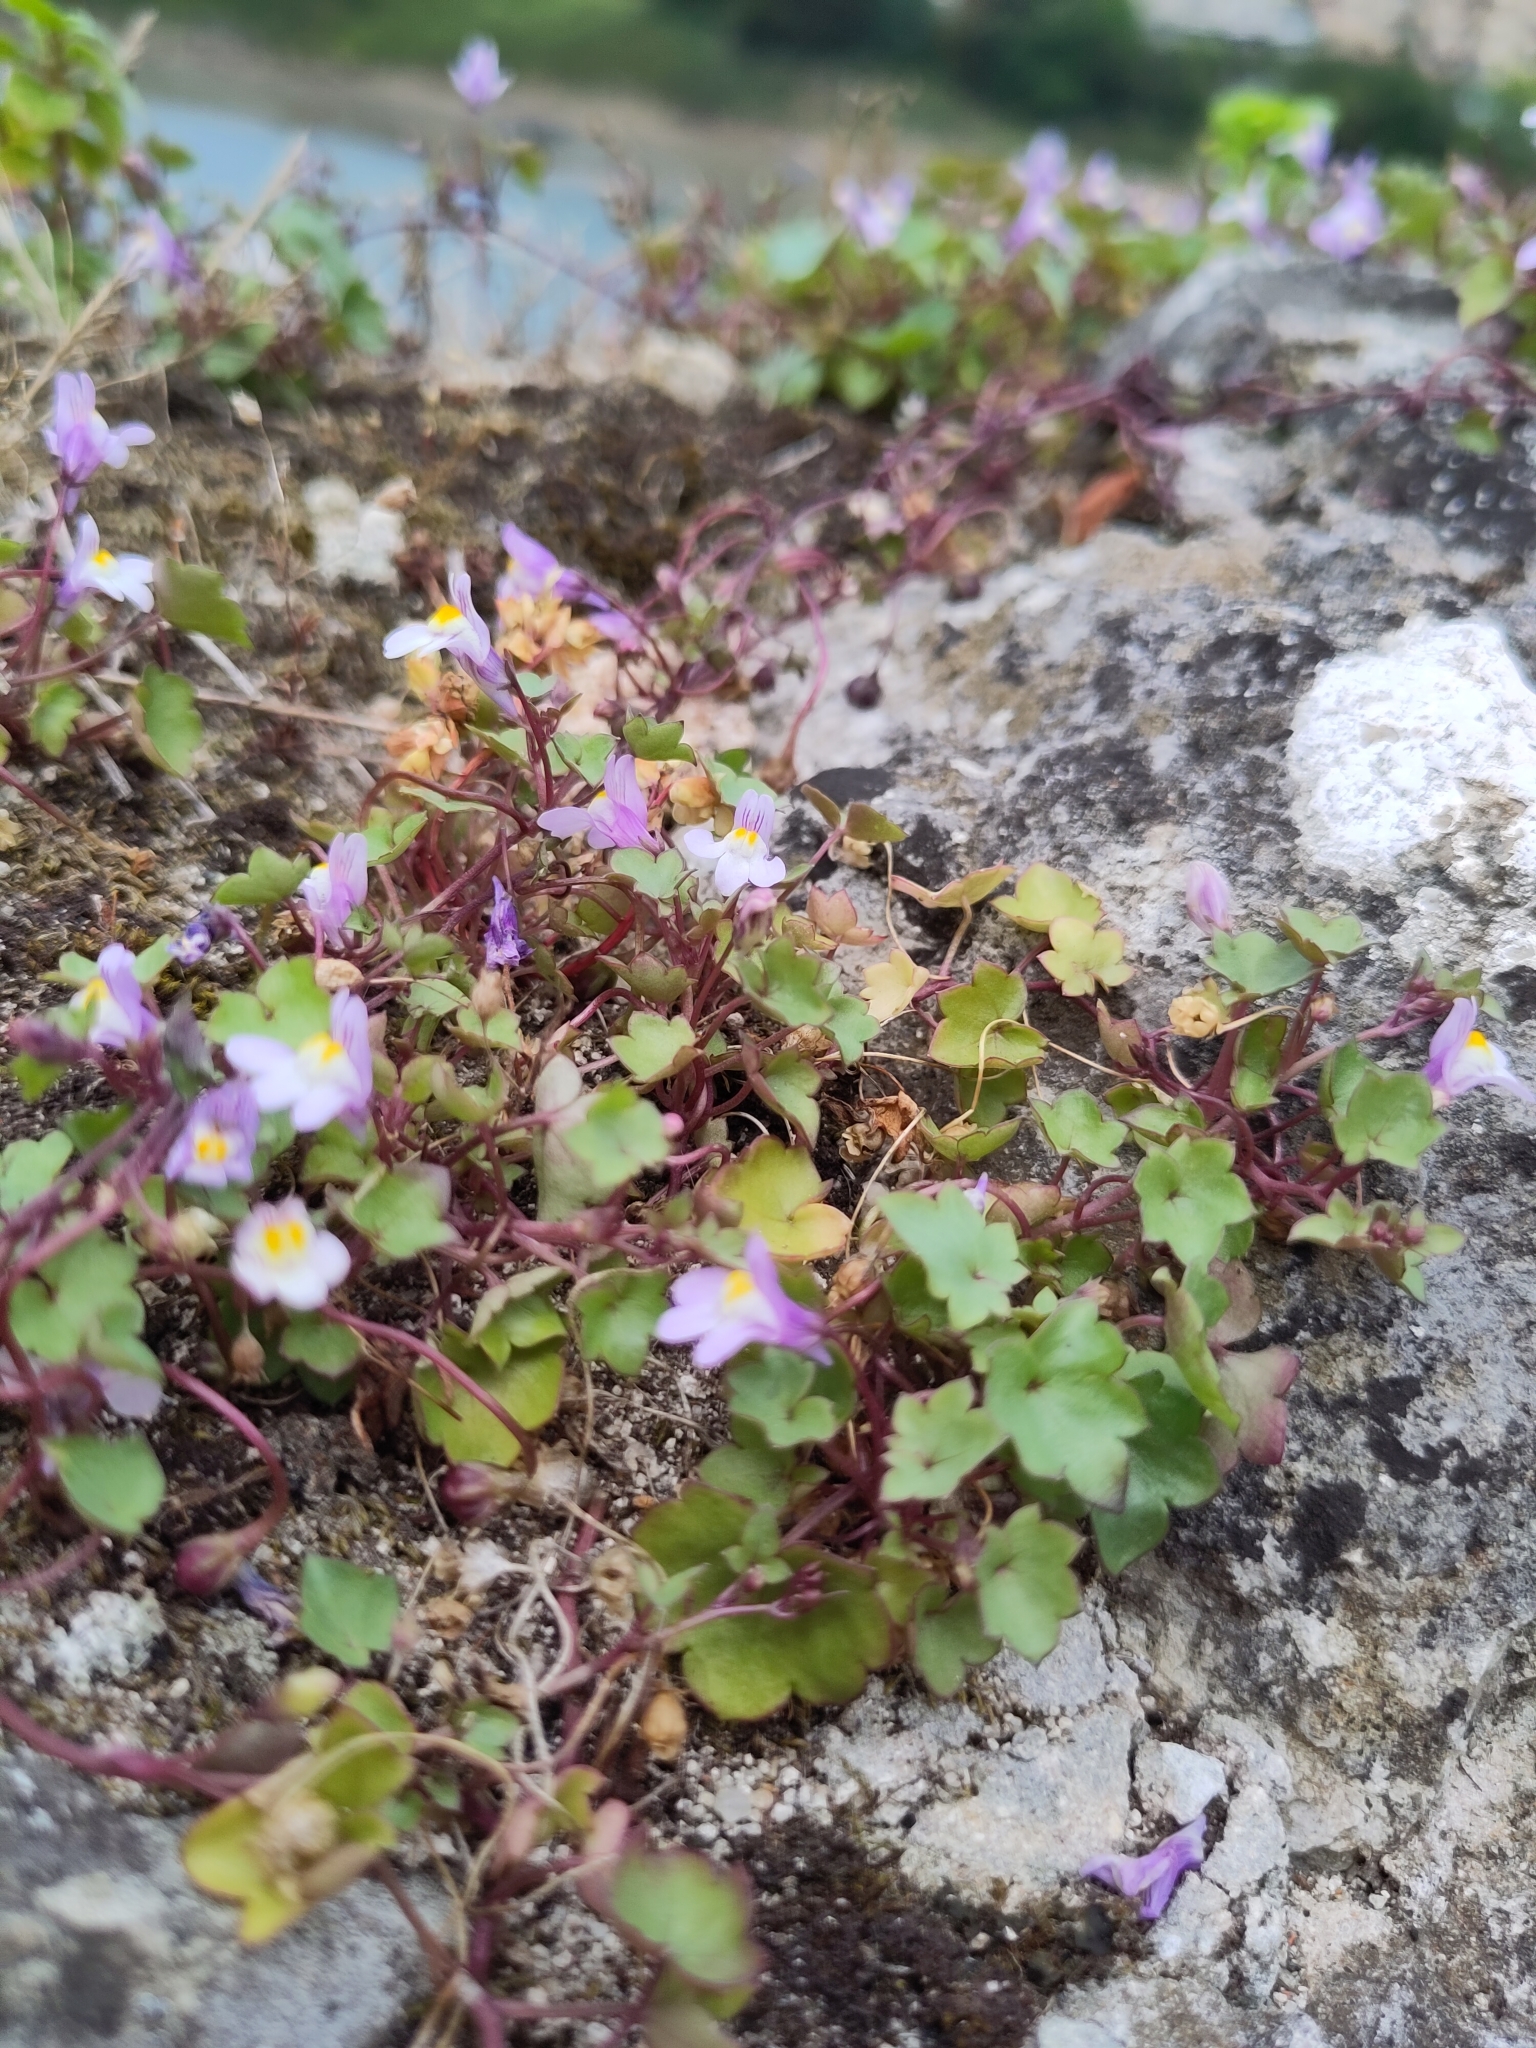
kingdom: Plantae
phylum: Tracheophyta
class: Magnoliopsida
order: Lamiales
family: Plantaginaceae
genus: Cymbalaria
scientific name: Cymbalaria muralis
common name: Ivy-leaved toadflax
